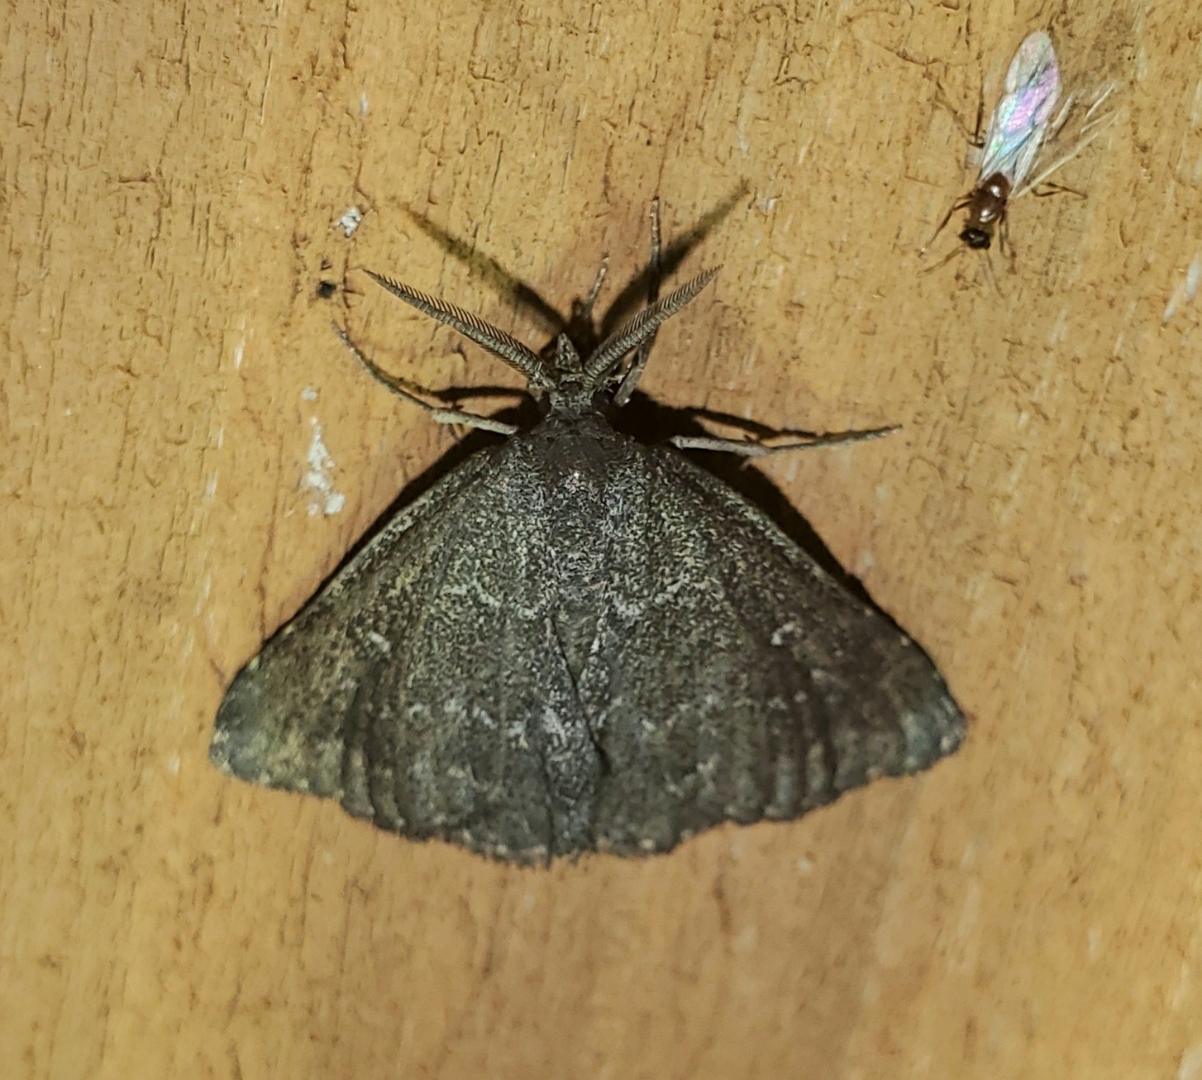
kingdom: Animalia
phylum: Arthropoda
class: Insecta
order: Lepidoptera
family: Erebidae
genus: Prosoparia
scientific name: Prosoparia floridana
